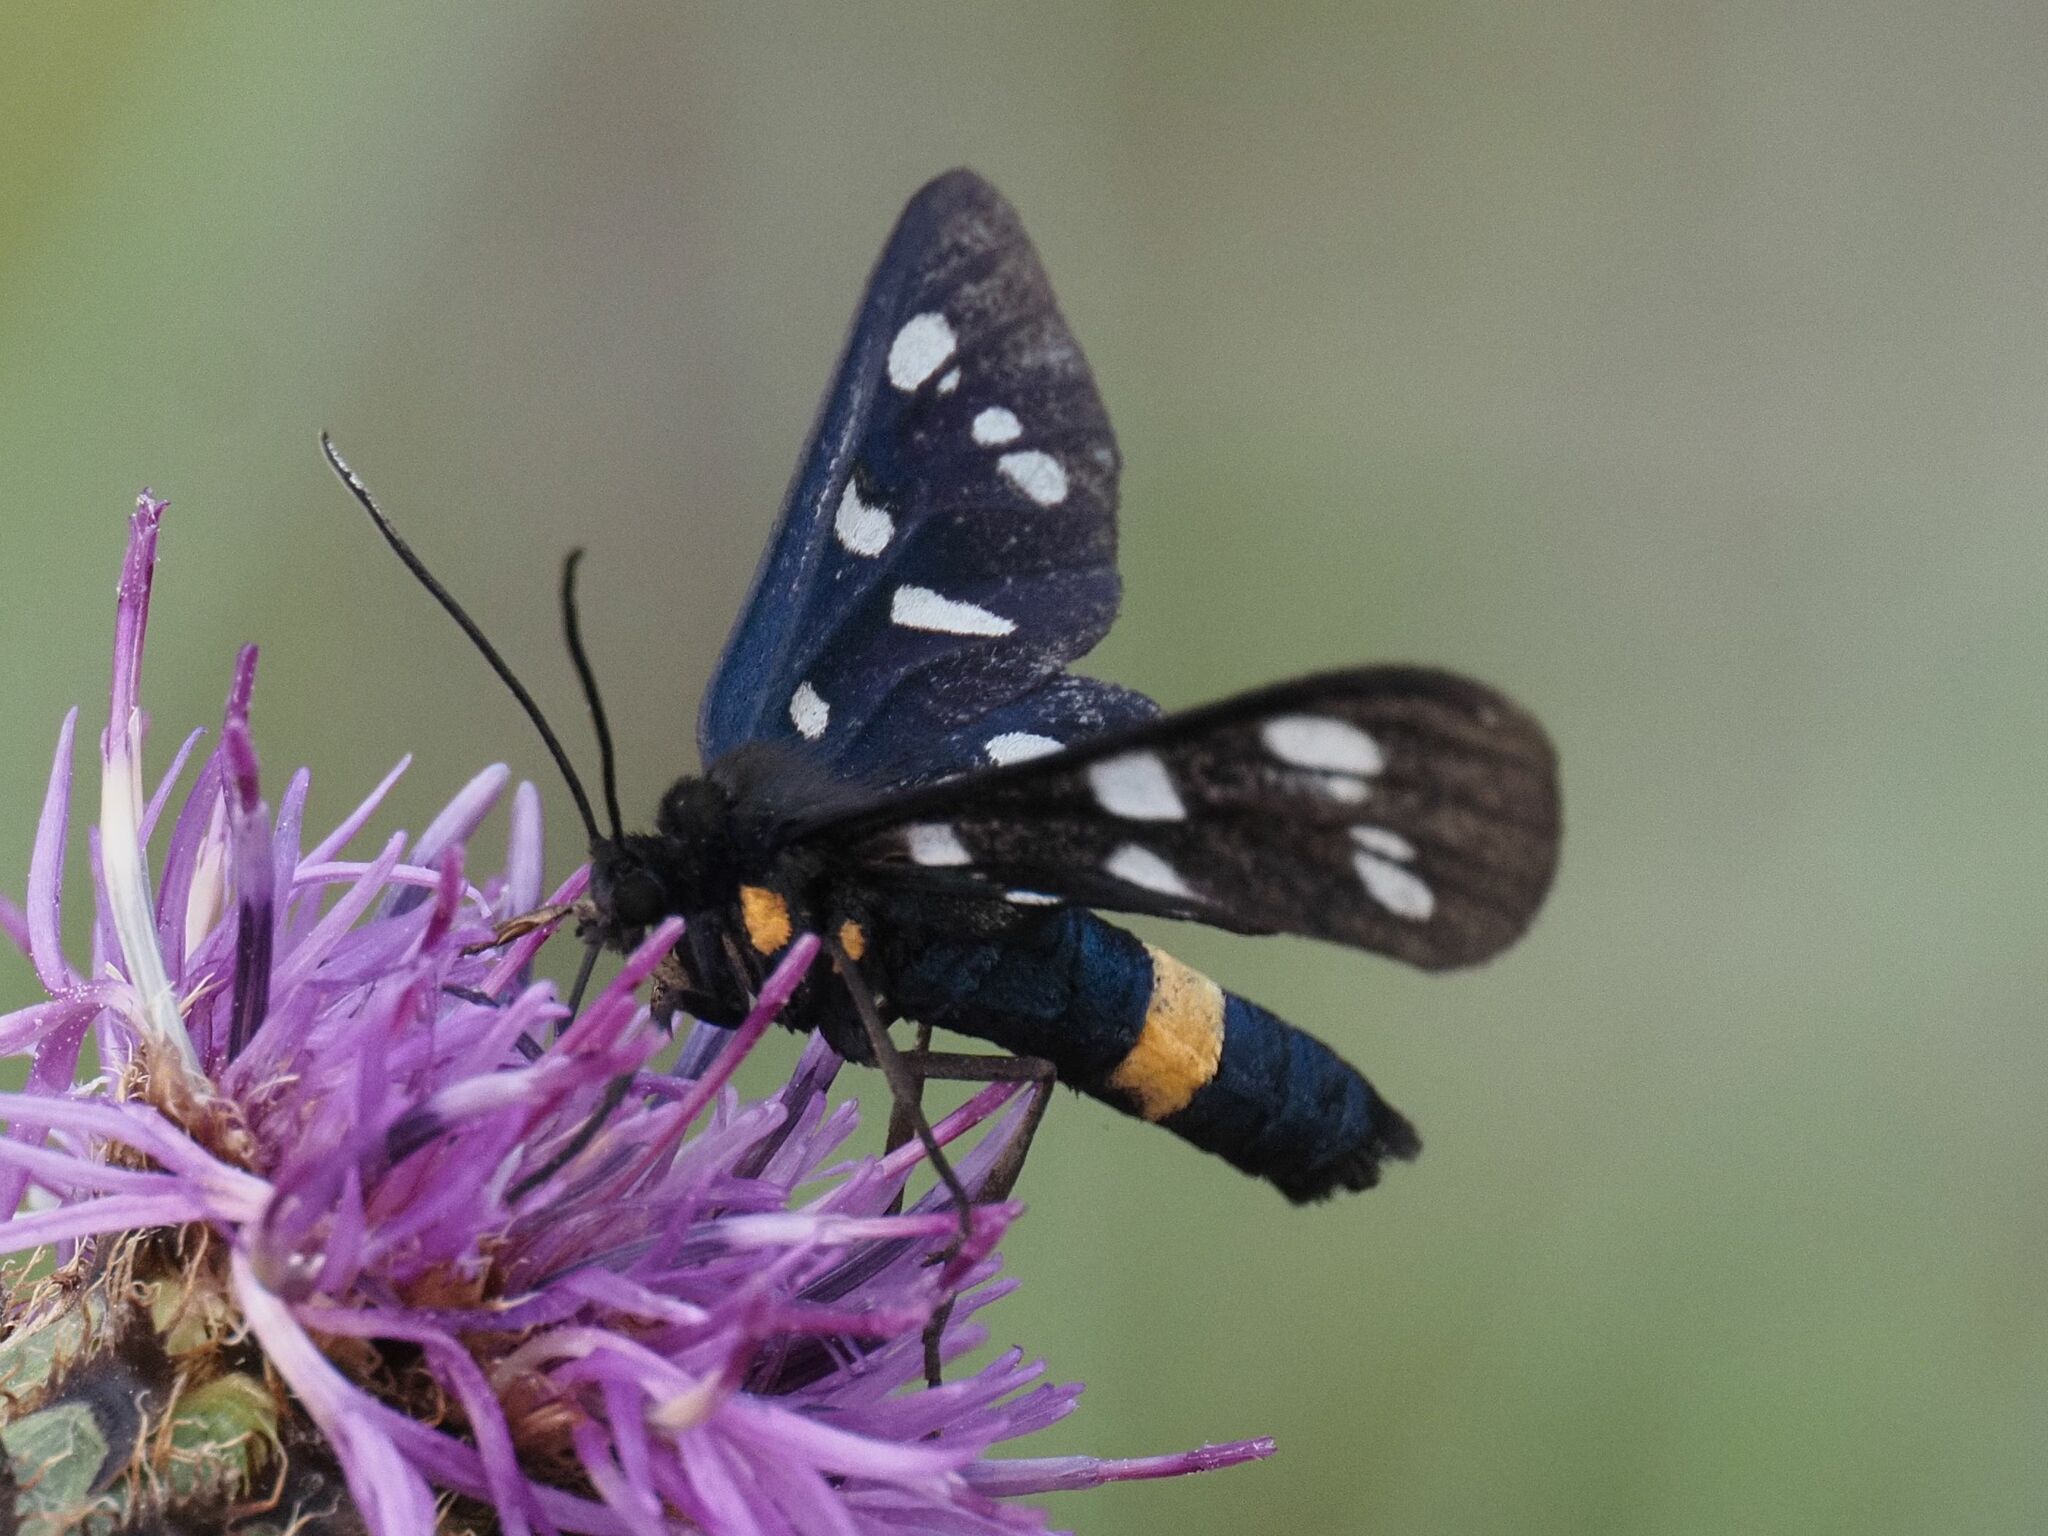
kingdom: Animalia
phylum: Arthropoda
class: Insecta
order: Lepidoptera
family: Erebidae
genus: Amata
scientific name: Amata phegea
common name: Nine-spotted
